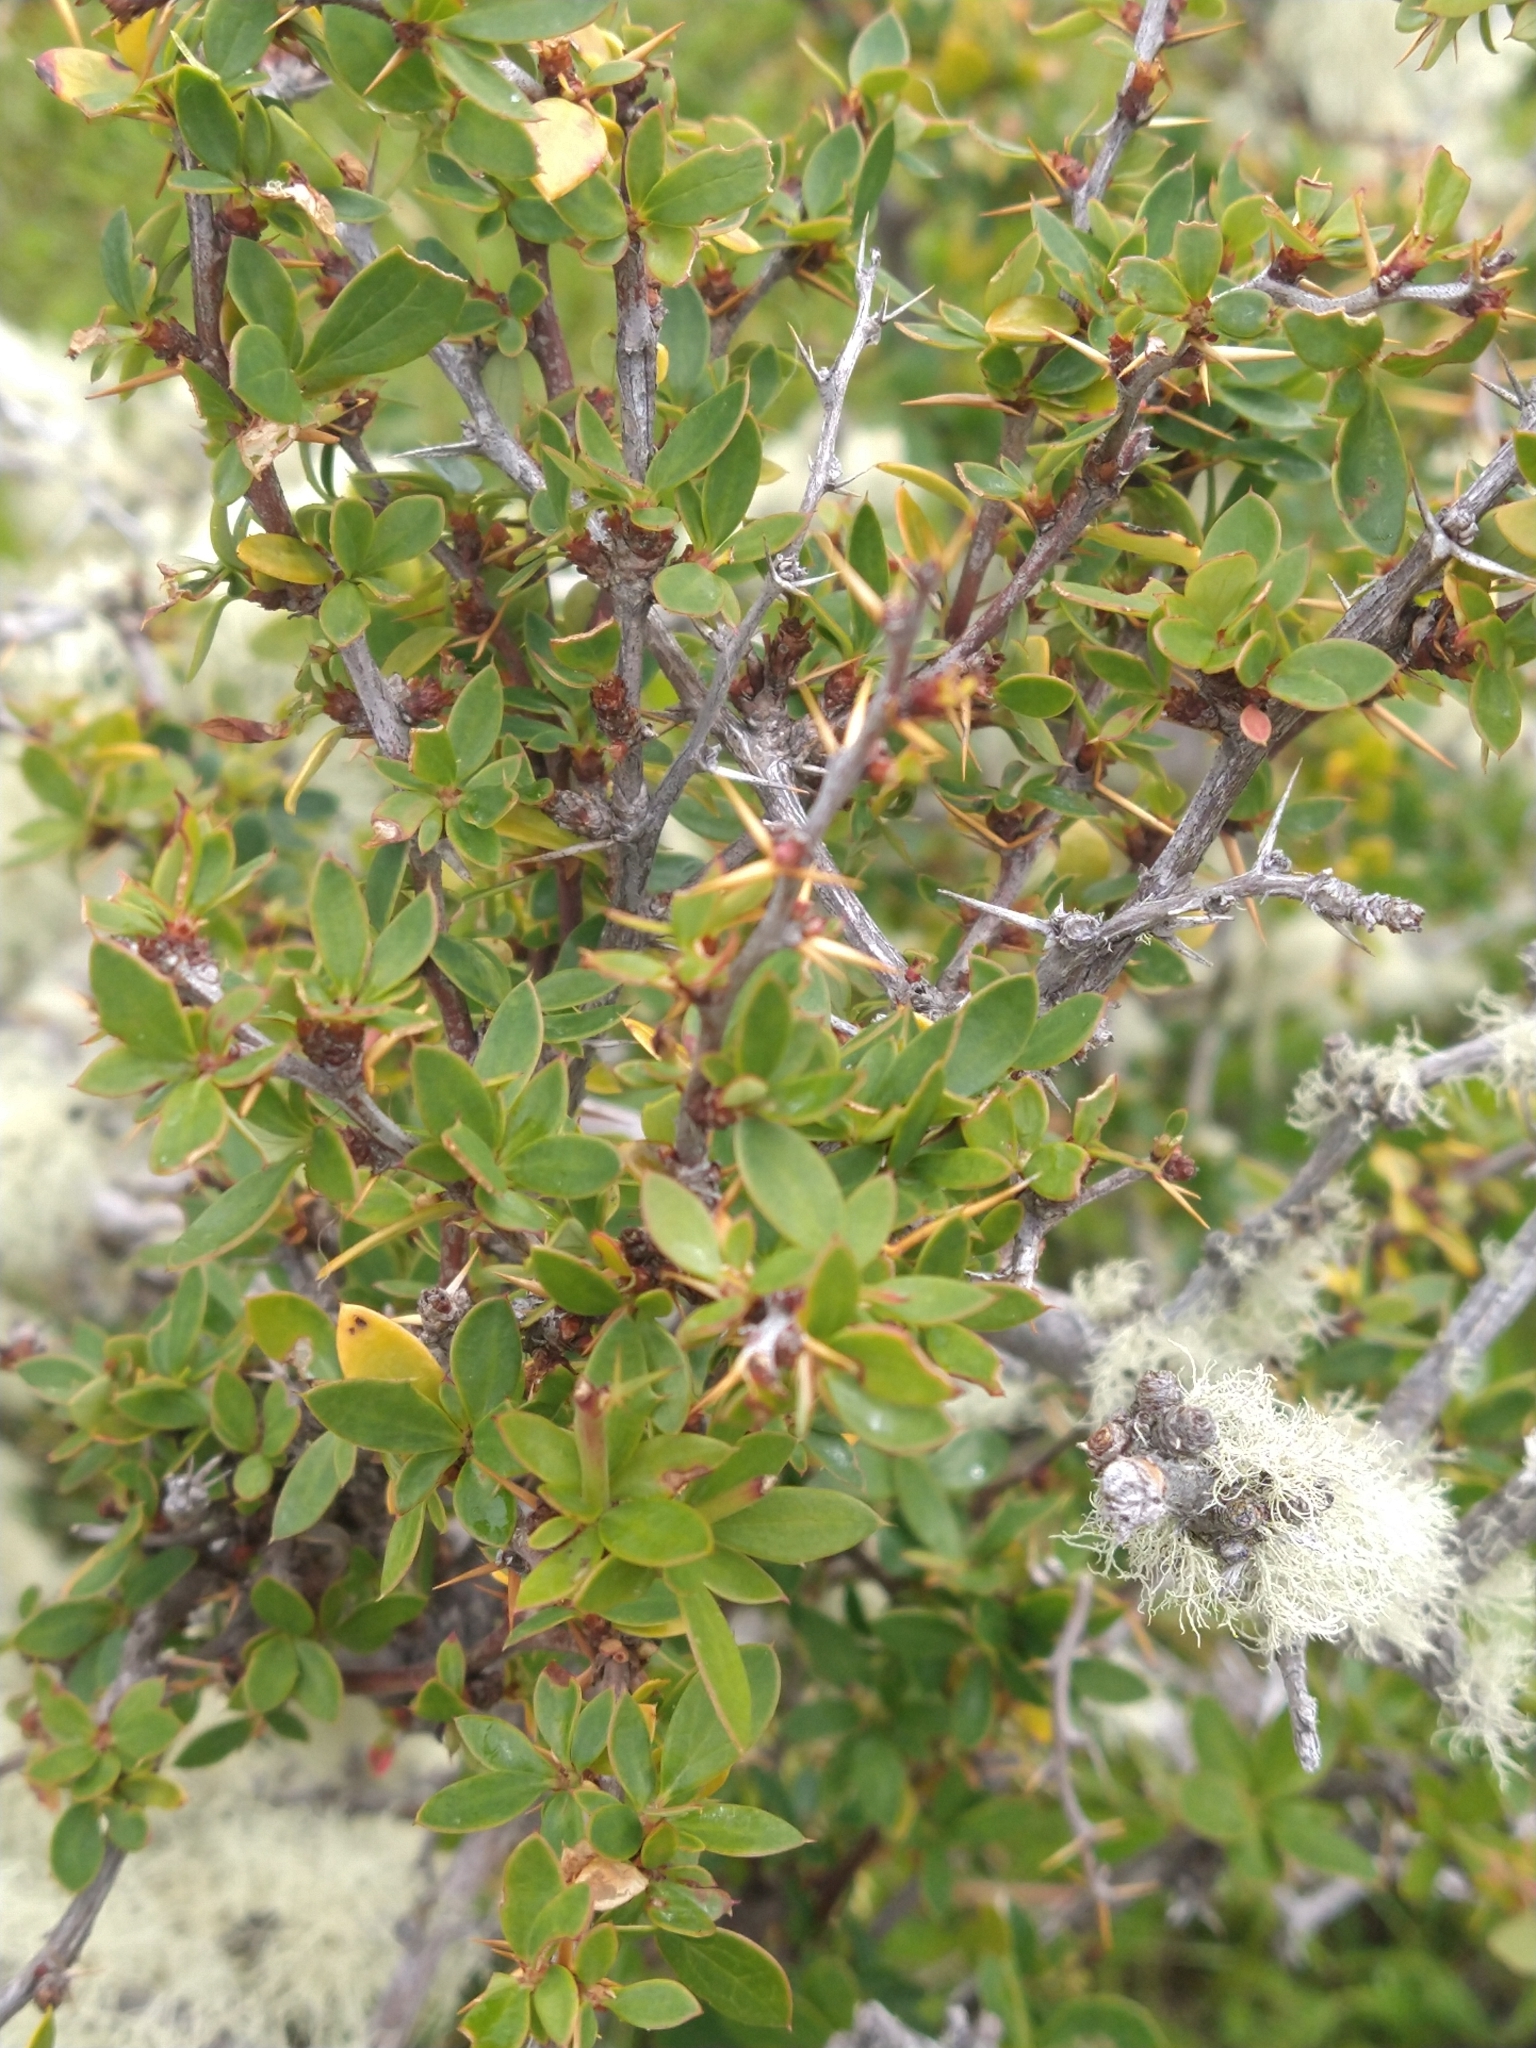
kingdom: Plantae
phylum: Tracheophyta
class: Magnoliopsida
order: Ranunculales
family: Berberidaceae
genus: Berberis
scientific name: Berberis microphylla
